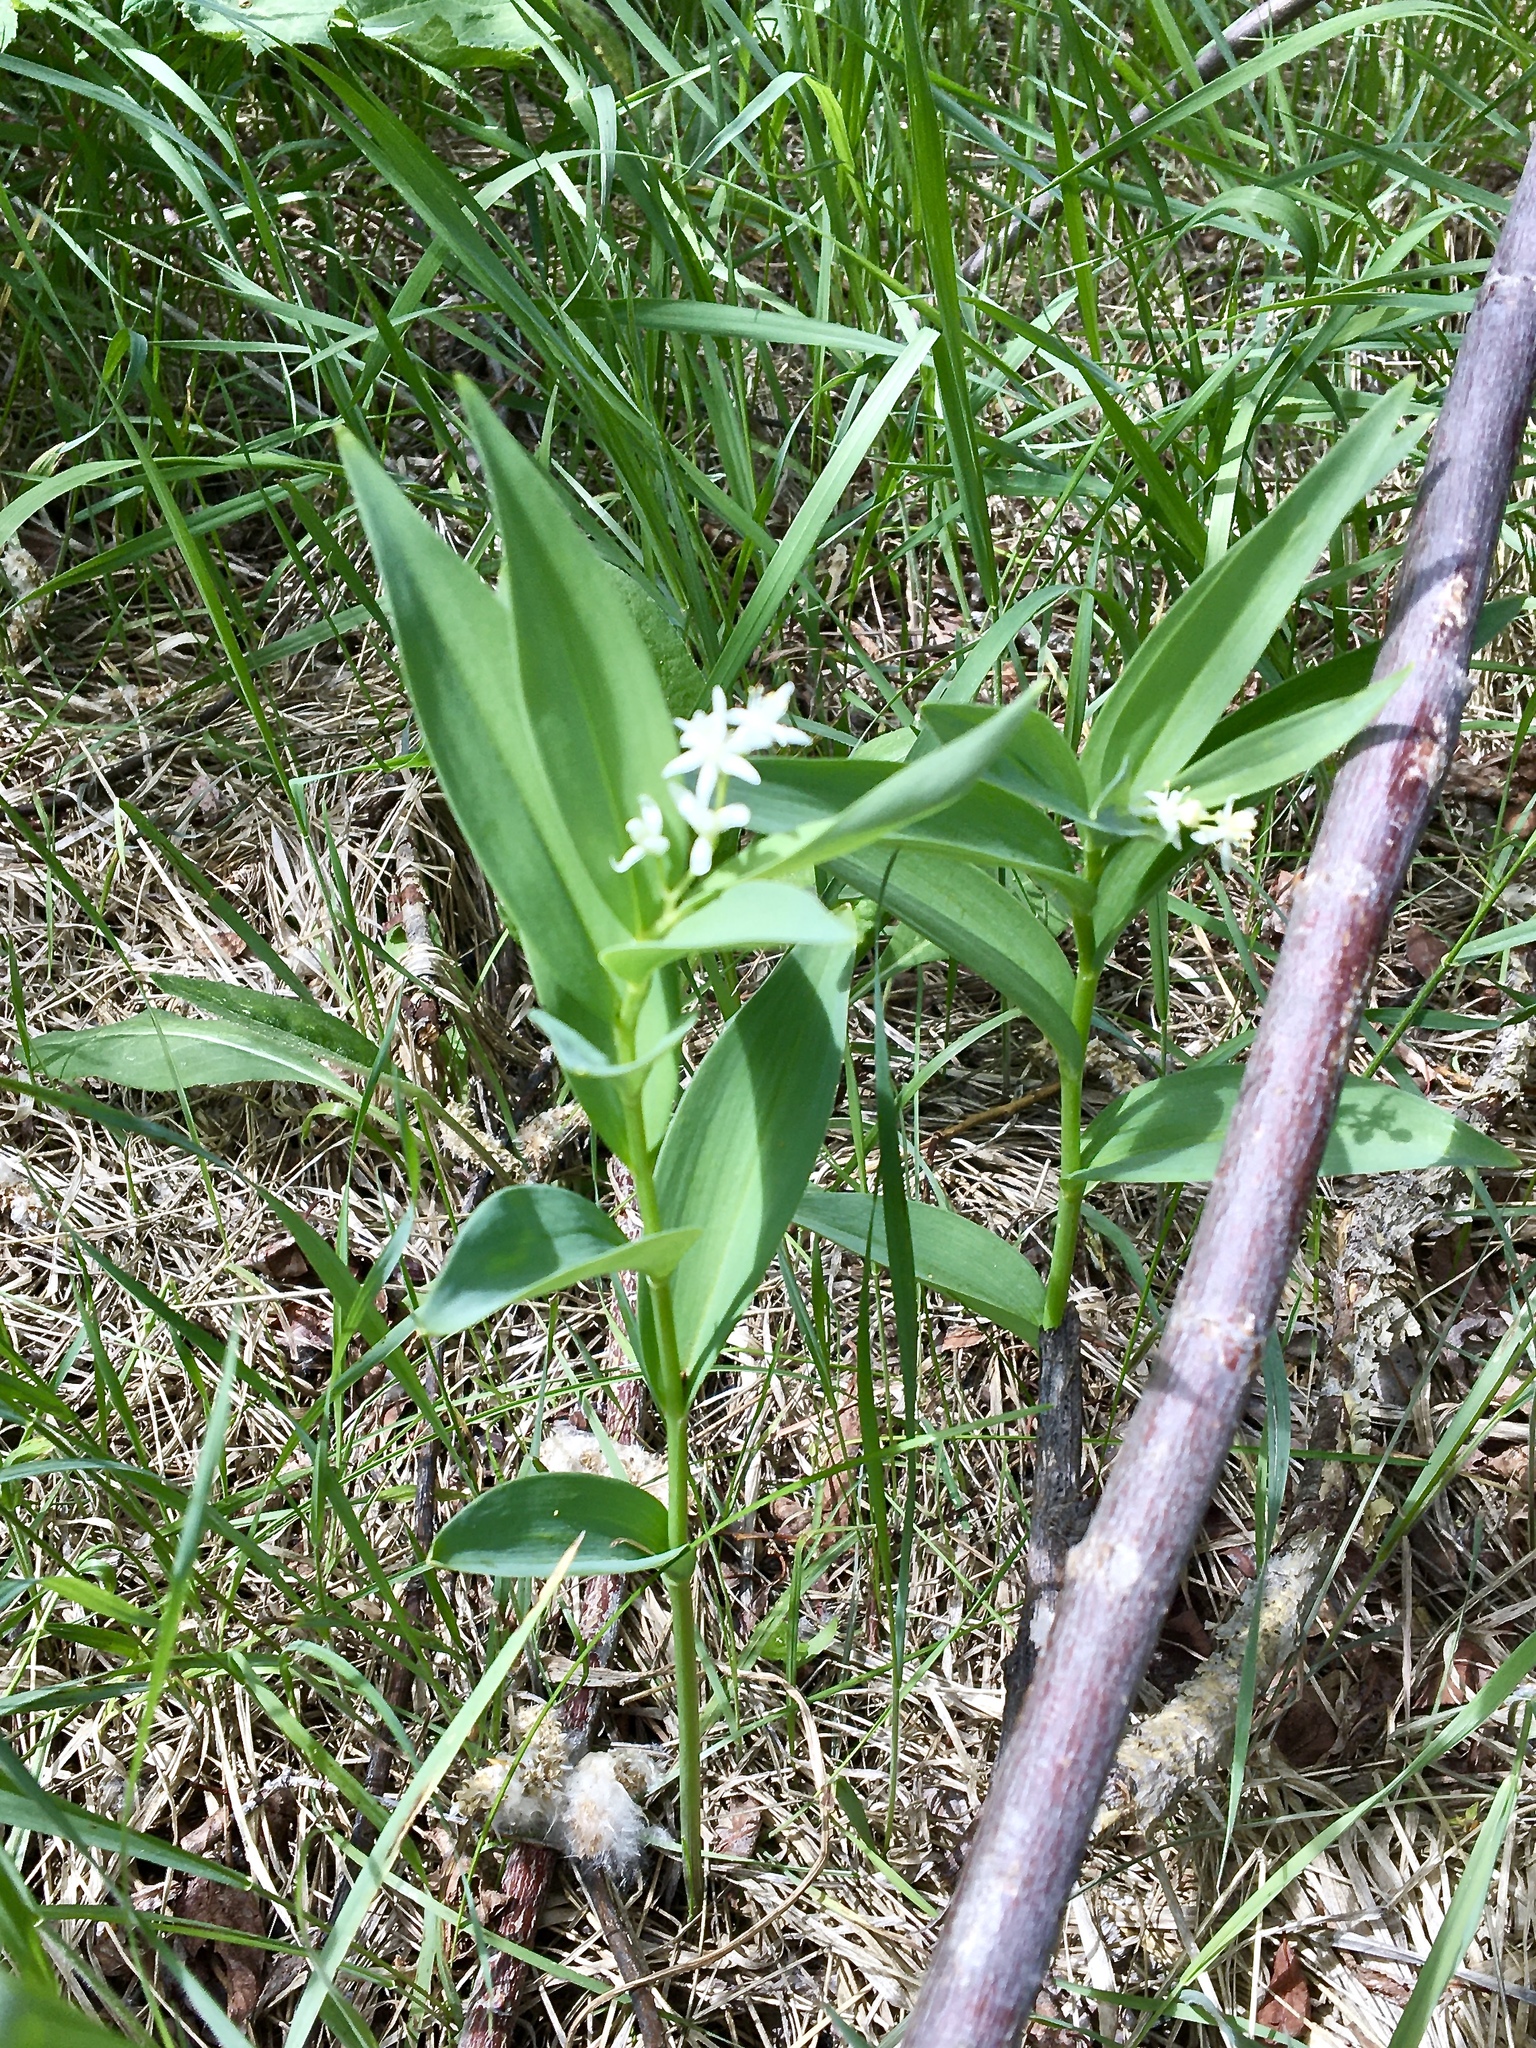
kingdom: Plantae
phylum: Tracheophyta
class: Liliopsida
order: Asparagales
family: Asparagaceae
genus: Maianthemum
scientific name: Maianthemum stellatum
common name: Little false solomon's seal
